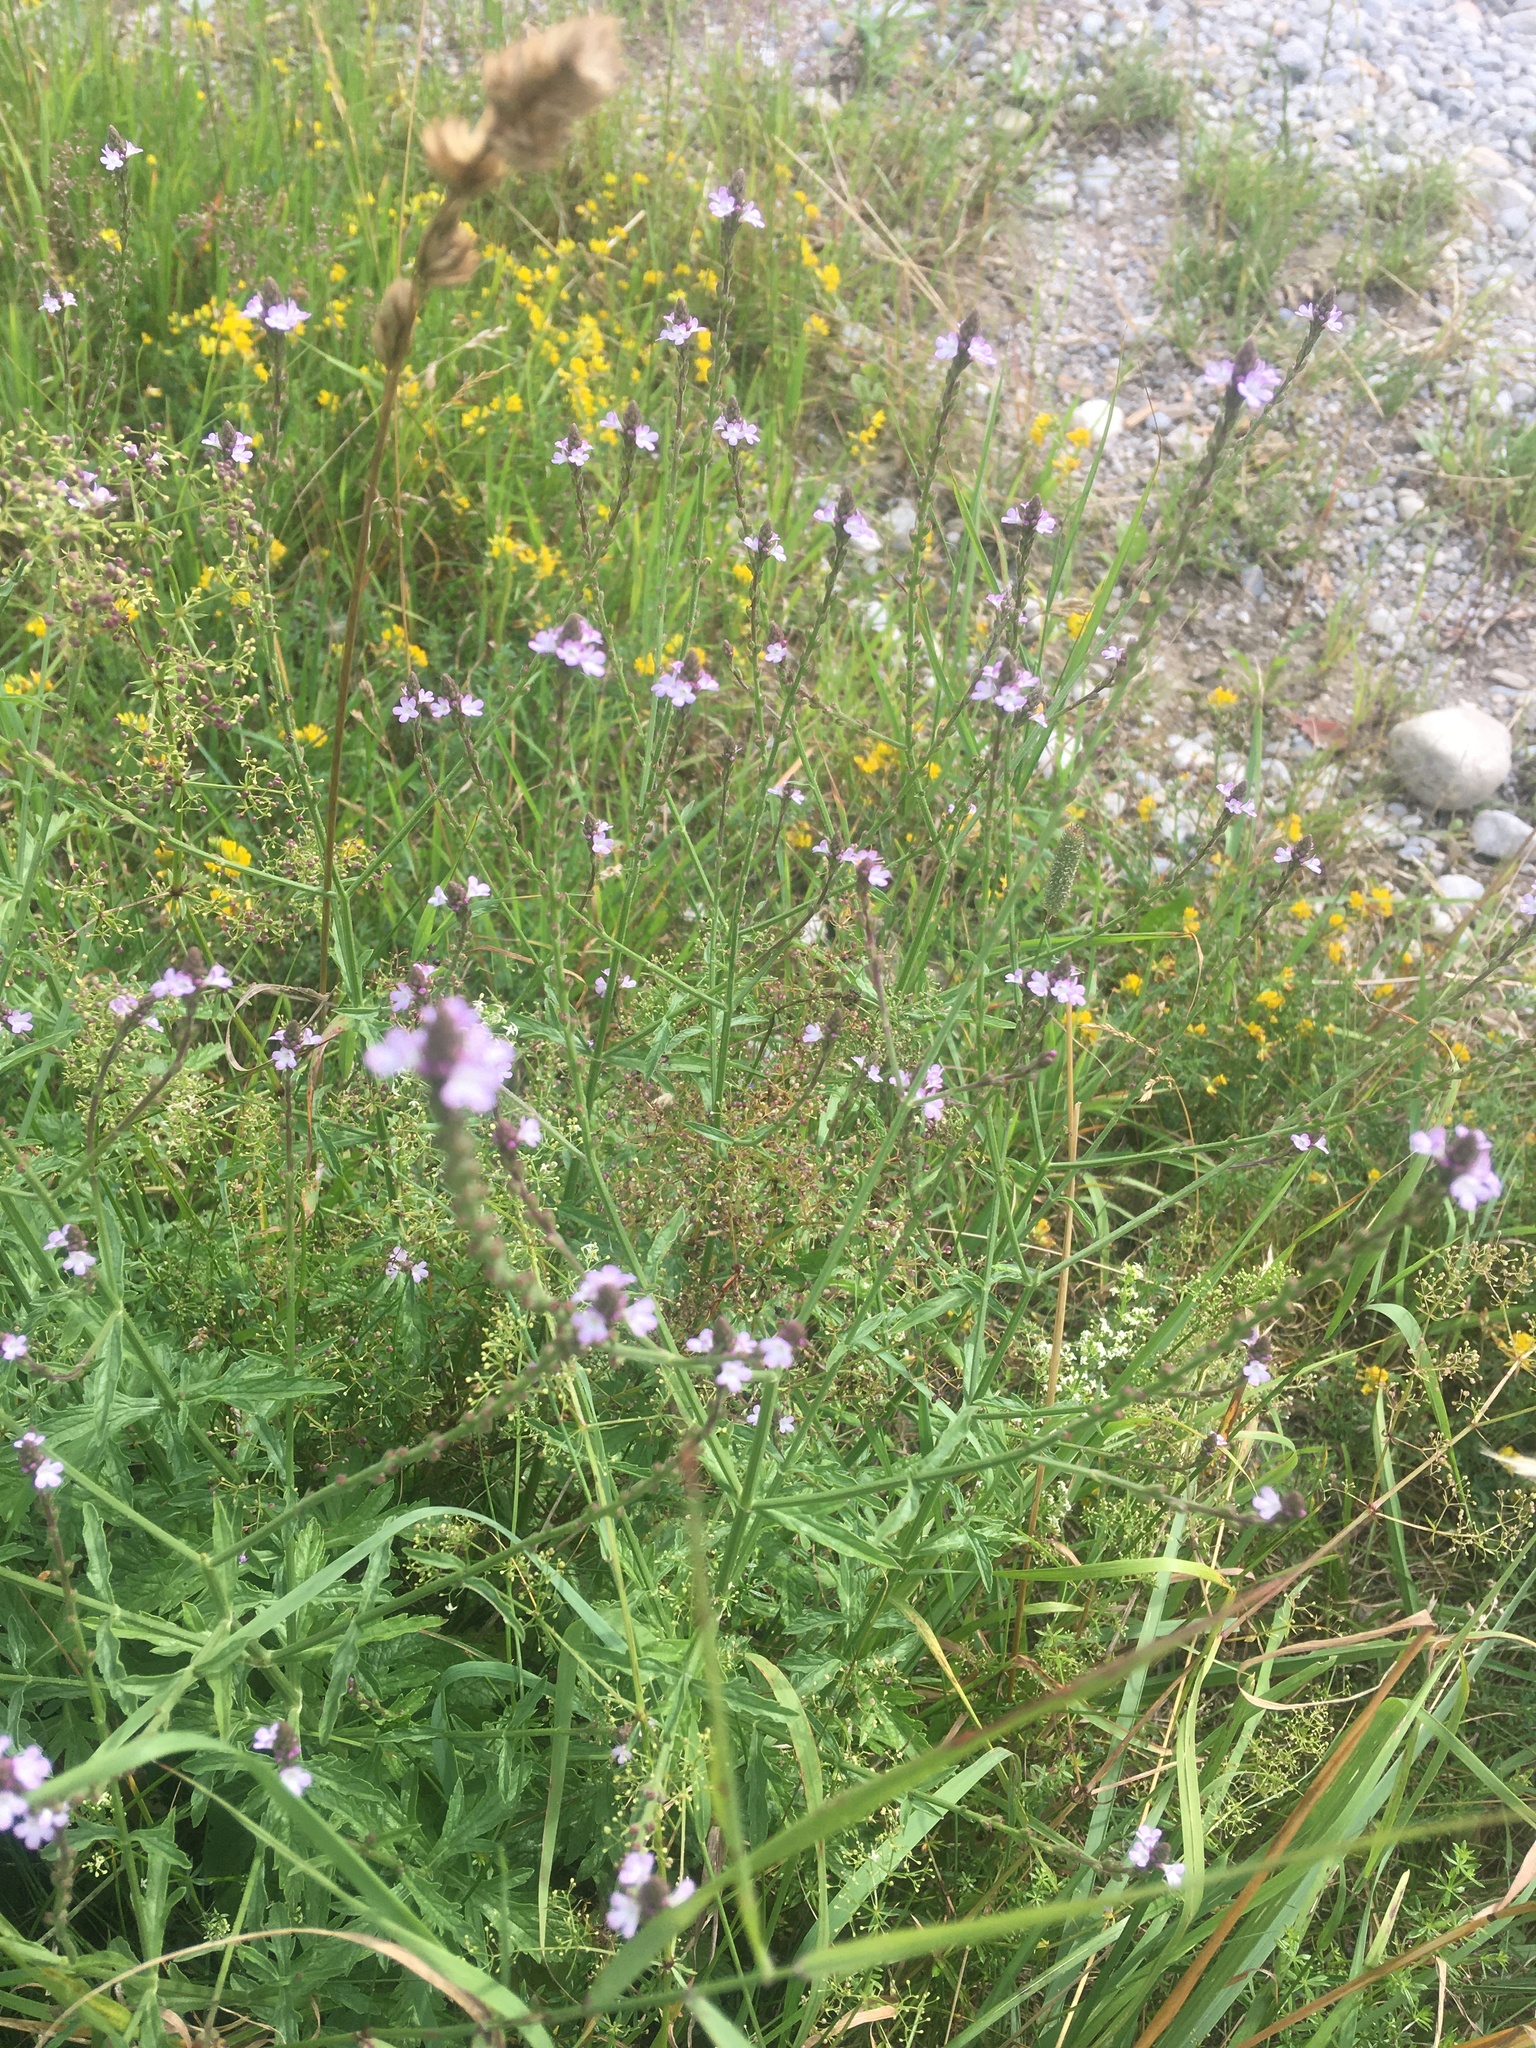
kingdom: Plantae
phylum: Tracheophyta
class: Magnoliopsida
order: Lamiales
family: Verbenaceae
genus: Verbena
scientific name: Verbena officinalis
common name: Vervain
